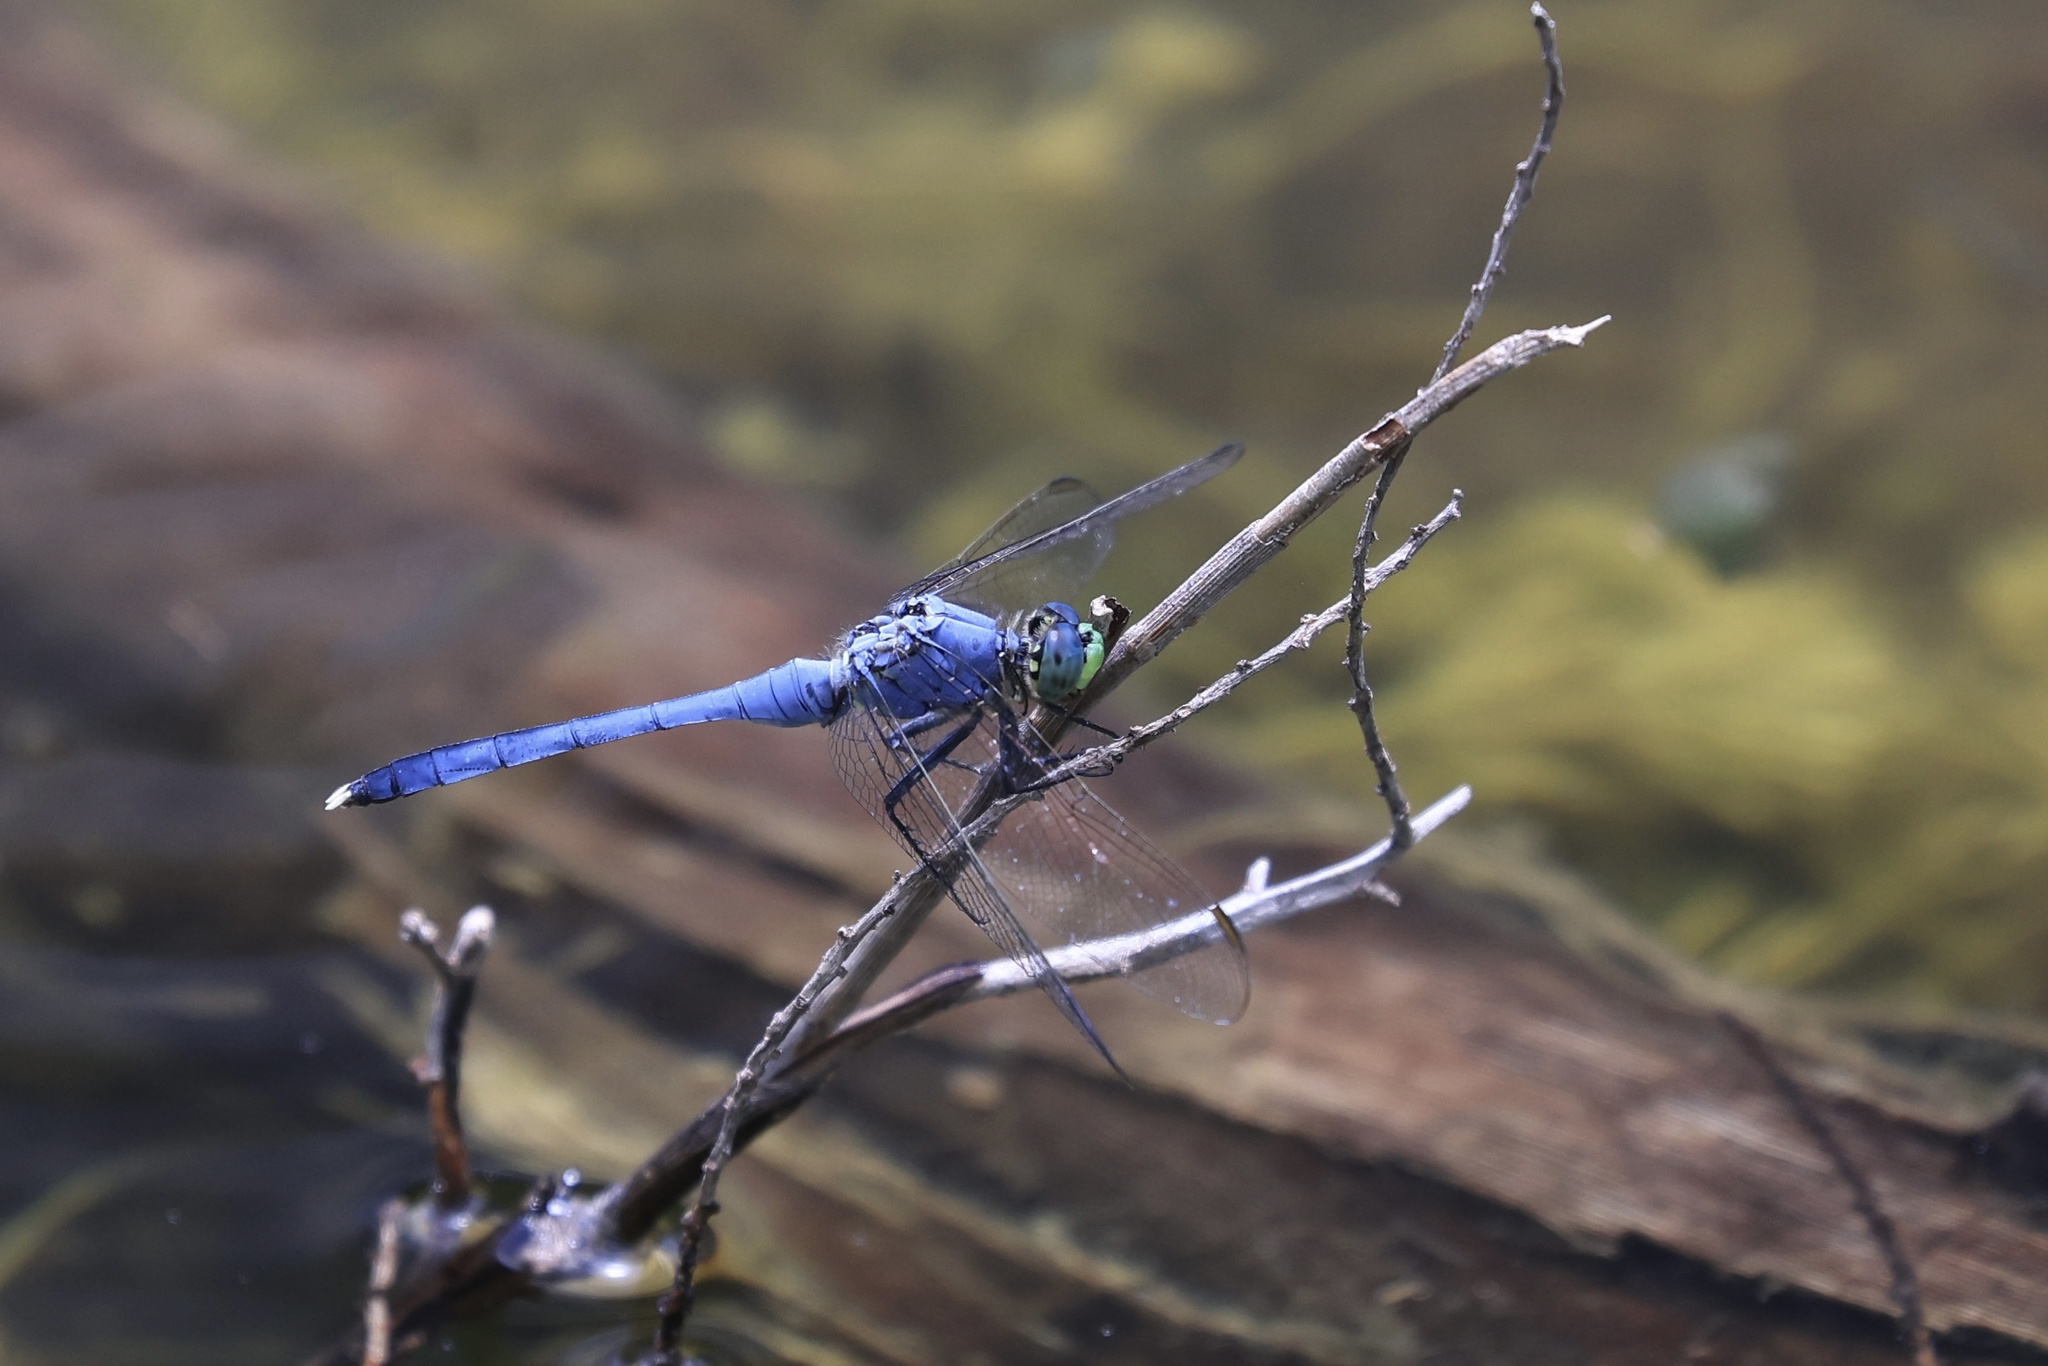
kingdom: Animalia
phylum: Arthropoda
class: Insecta
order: Odonata
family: Libellulidae
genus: Erythemis
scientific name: Erythemis simplicicollis
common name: Eastern pondhawk
